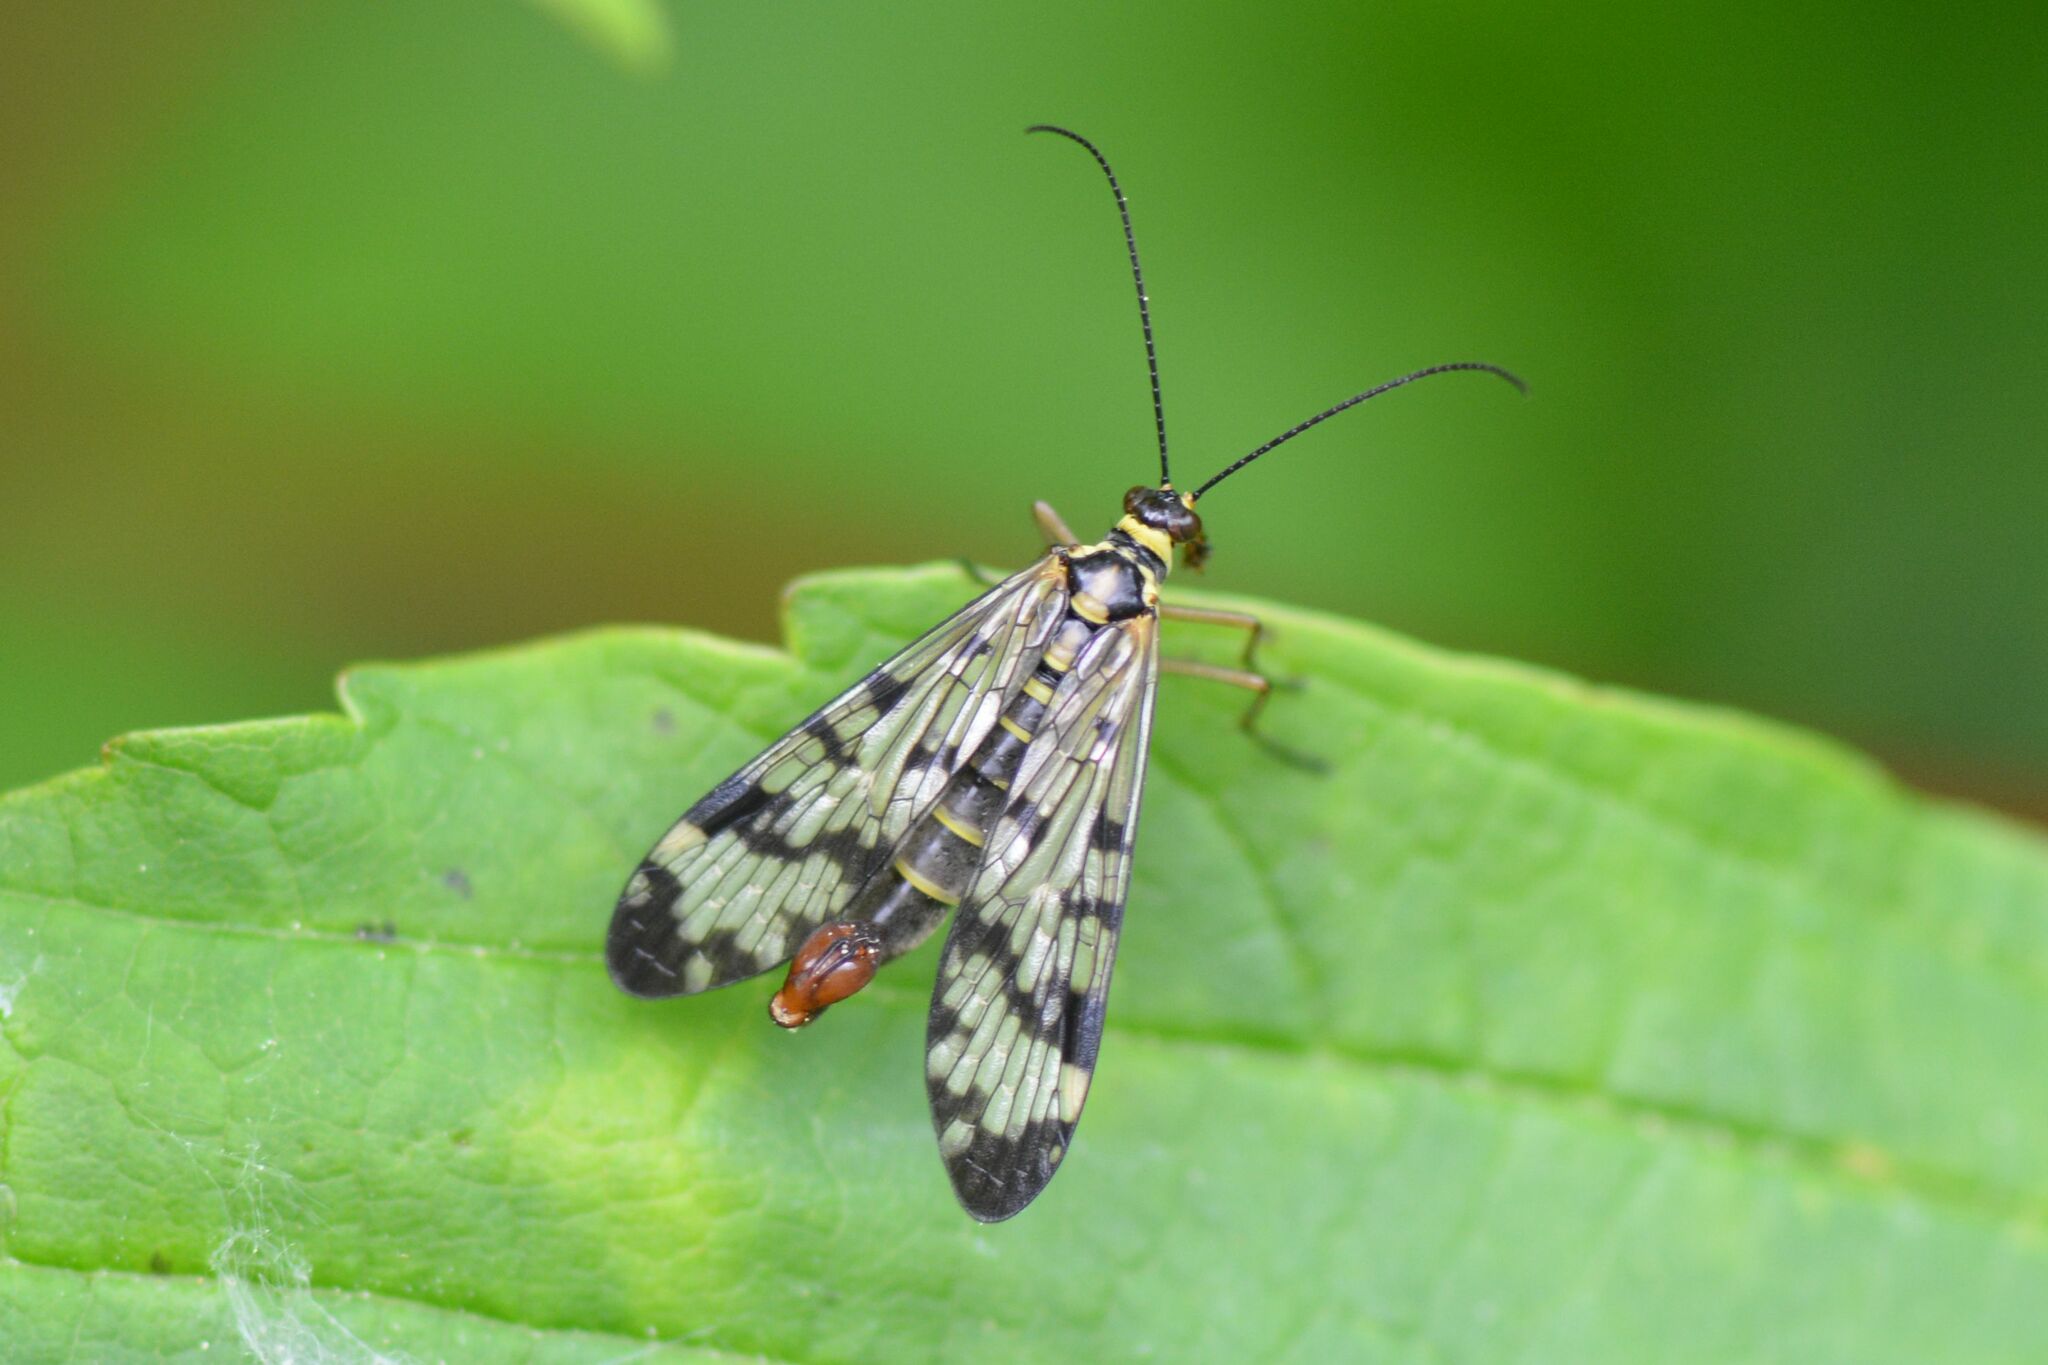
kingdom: Animalia
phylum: Arthropoda
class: Insecta
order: Mecoptera
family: Panorpidae
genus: Panorpa
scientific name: Panorpa communis
